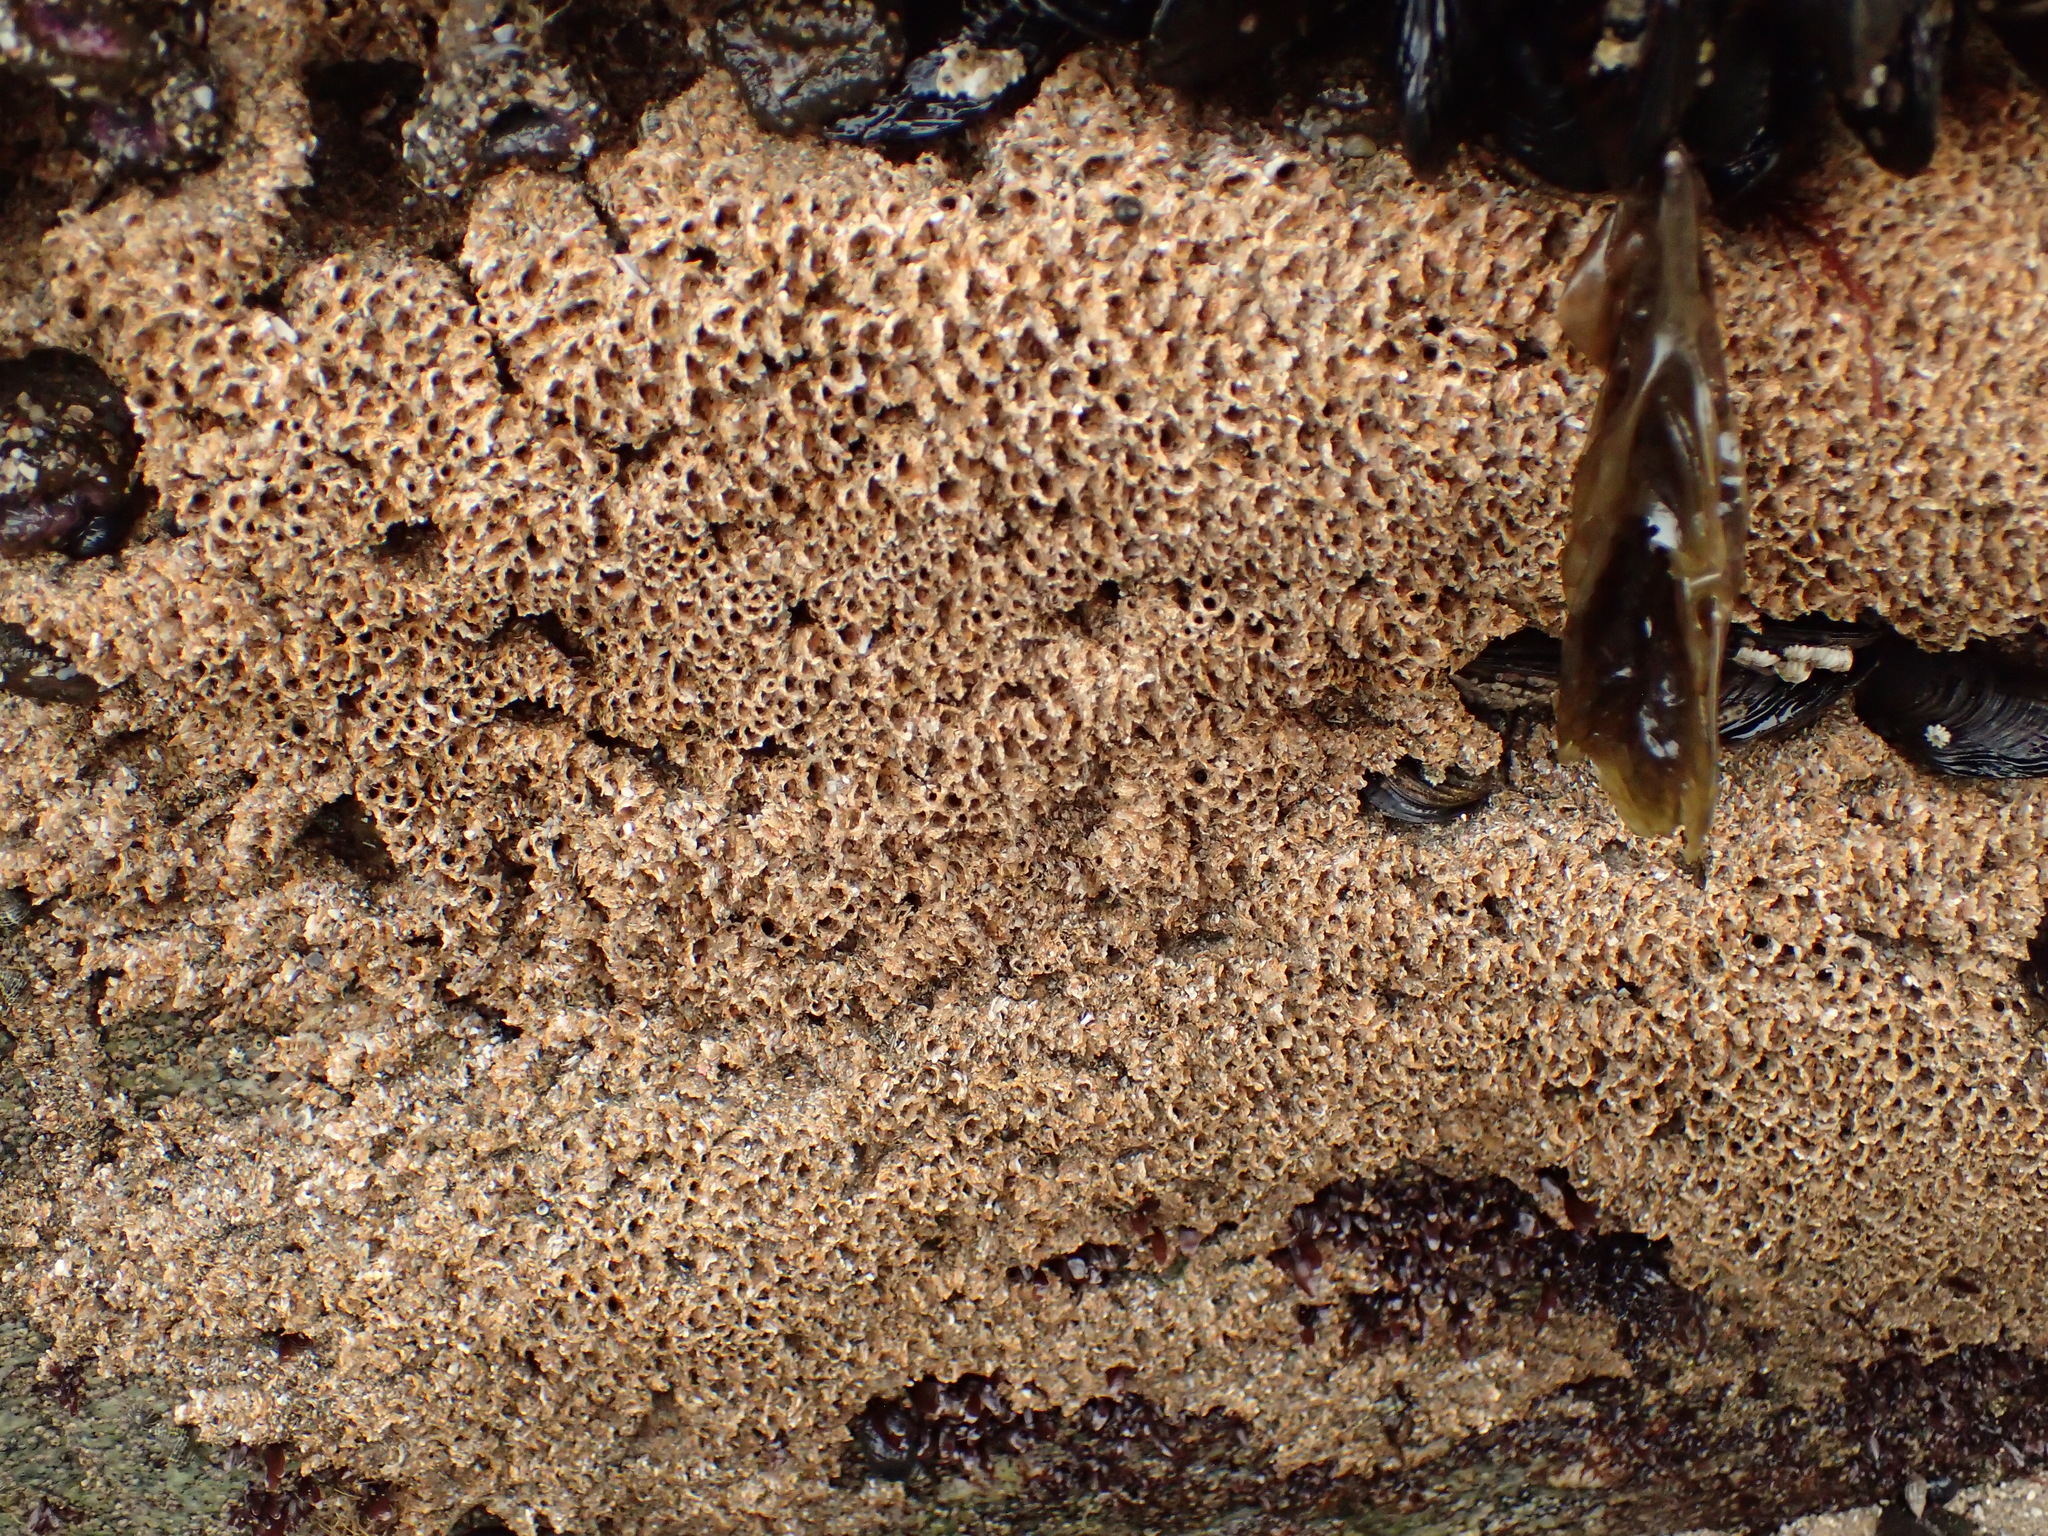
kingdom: Animalia
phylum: Annelida
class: Polychaeta
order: Sabellida
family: Sabellariidae
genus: Phragmatopoma
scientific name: Phragmatopoma californica
